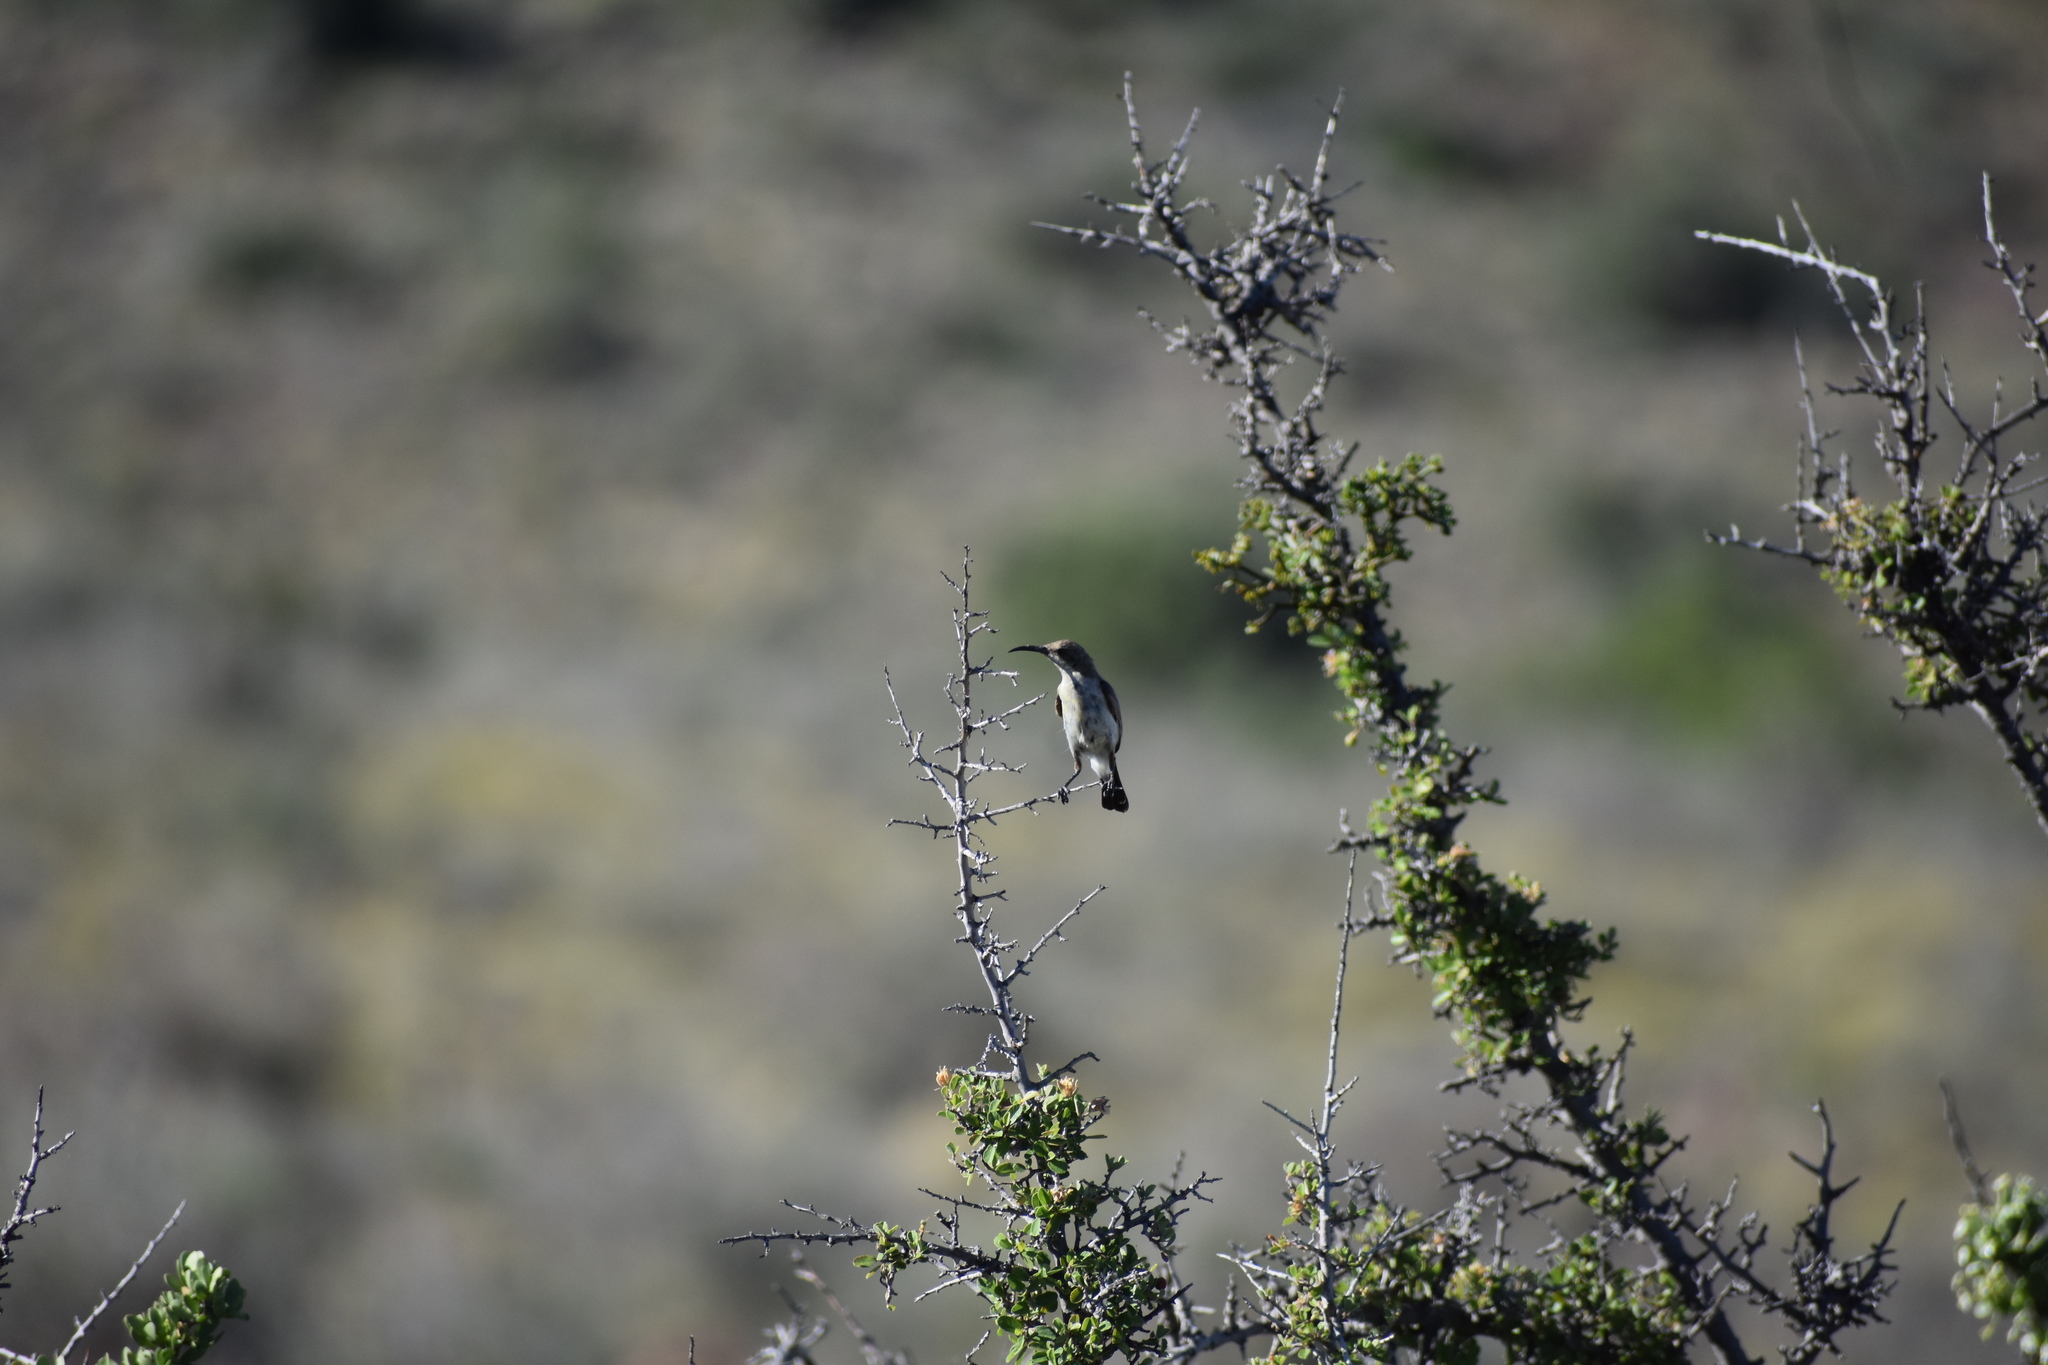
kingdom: Animalia
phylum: Chordata
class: Aves
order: Passeriformes
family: Nectariniidae
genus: Cinnyris
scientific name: Cinnyris fuscus
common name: Dusky sunbird
